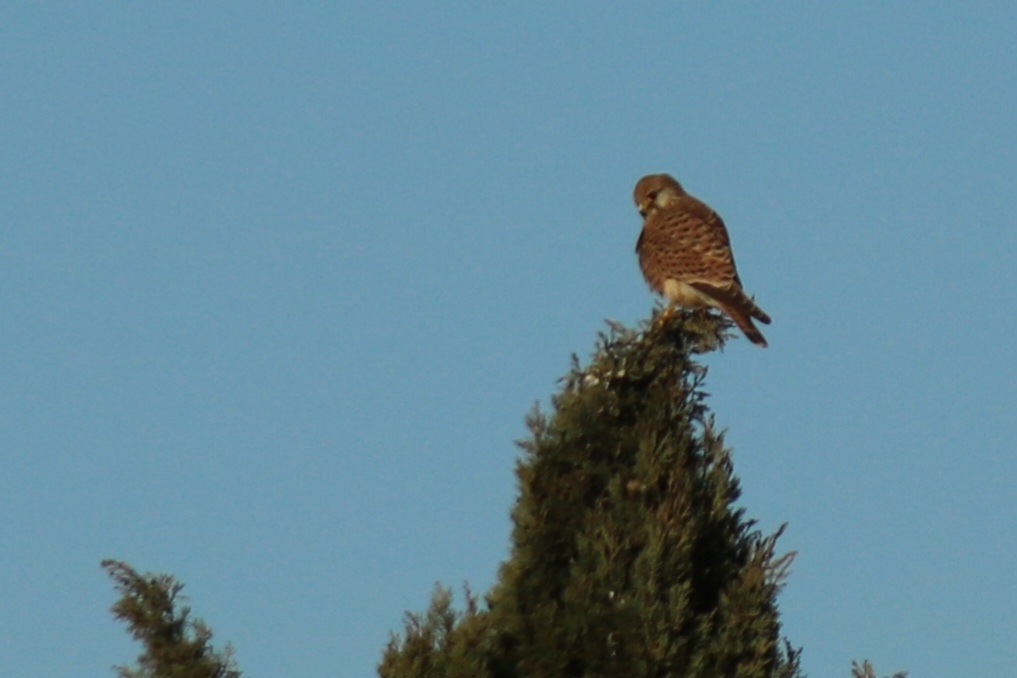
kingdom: Animalia
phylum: Chordata
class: Aves
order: Falconiformes
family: Falconidae
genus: Falco
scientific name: Falco tinnunculus
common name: Common kestrel
